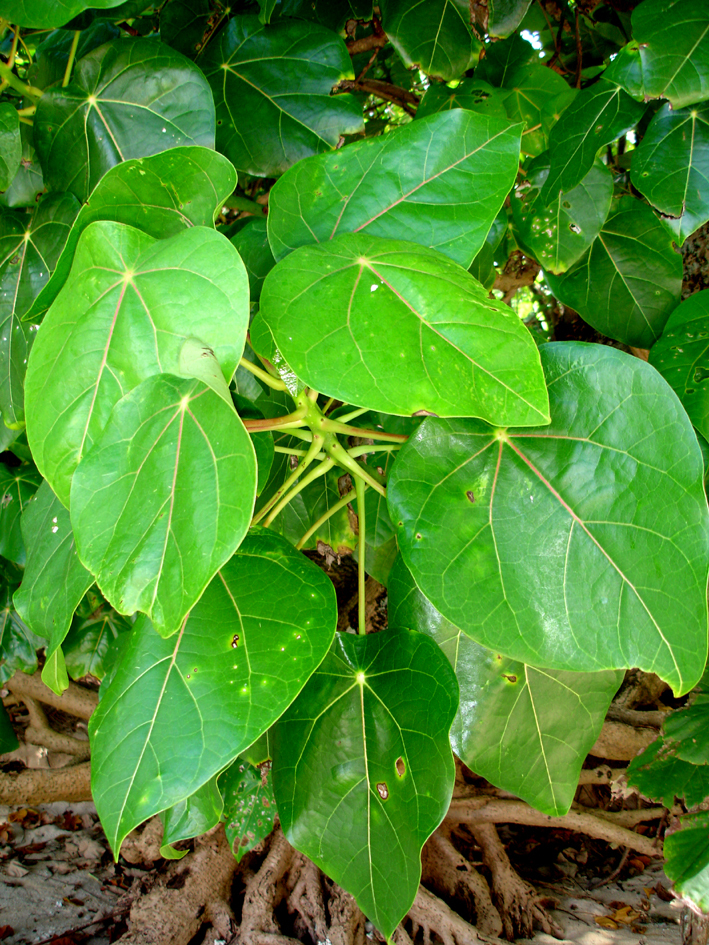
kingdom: Plantae
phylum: Tracheophyta
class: Magnoliopsida
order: Laurales
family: Hernandiaceae
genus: Hernandia
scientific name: Hernandia nymphaeifolia
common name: Sea hearse
